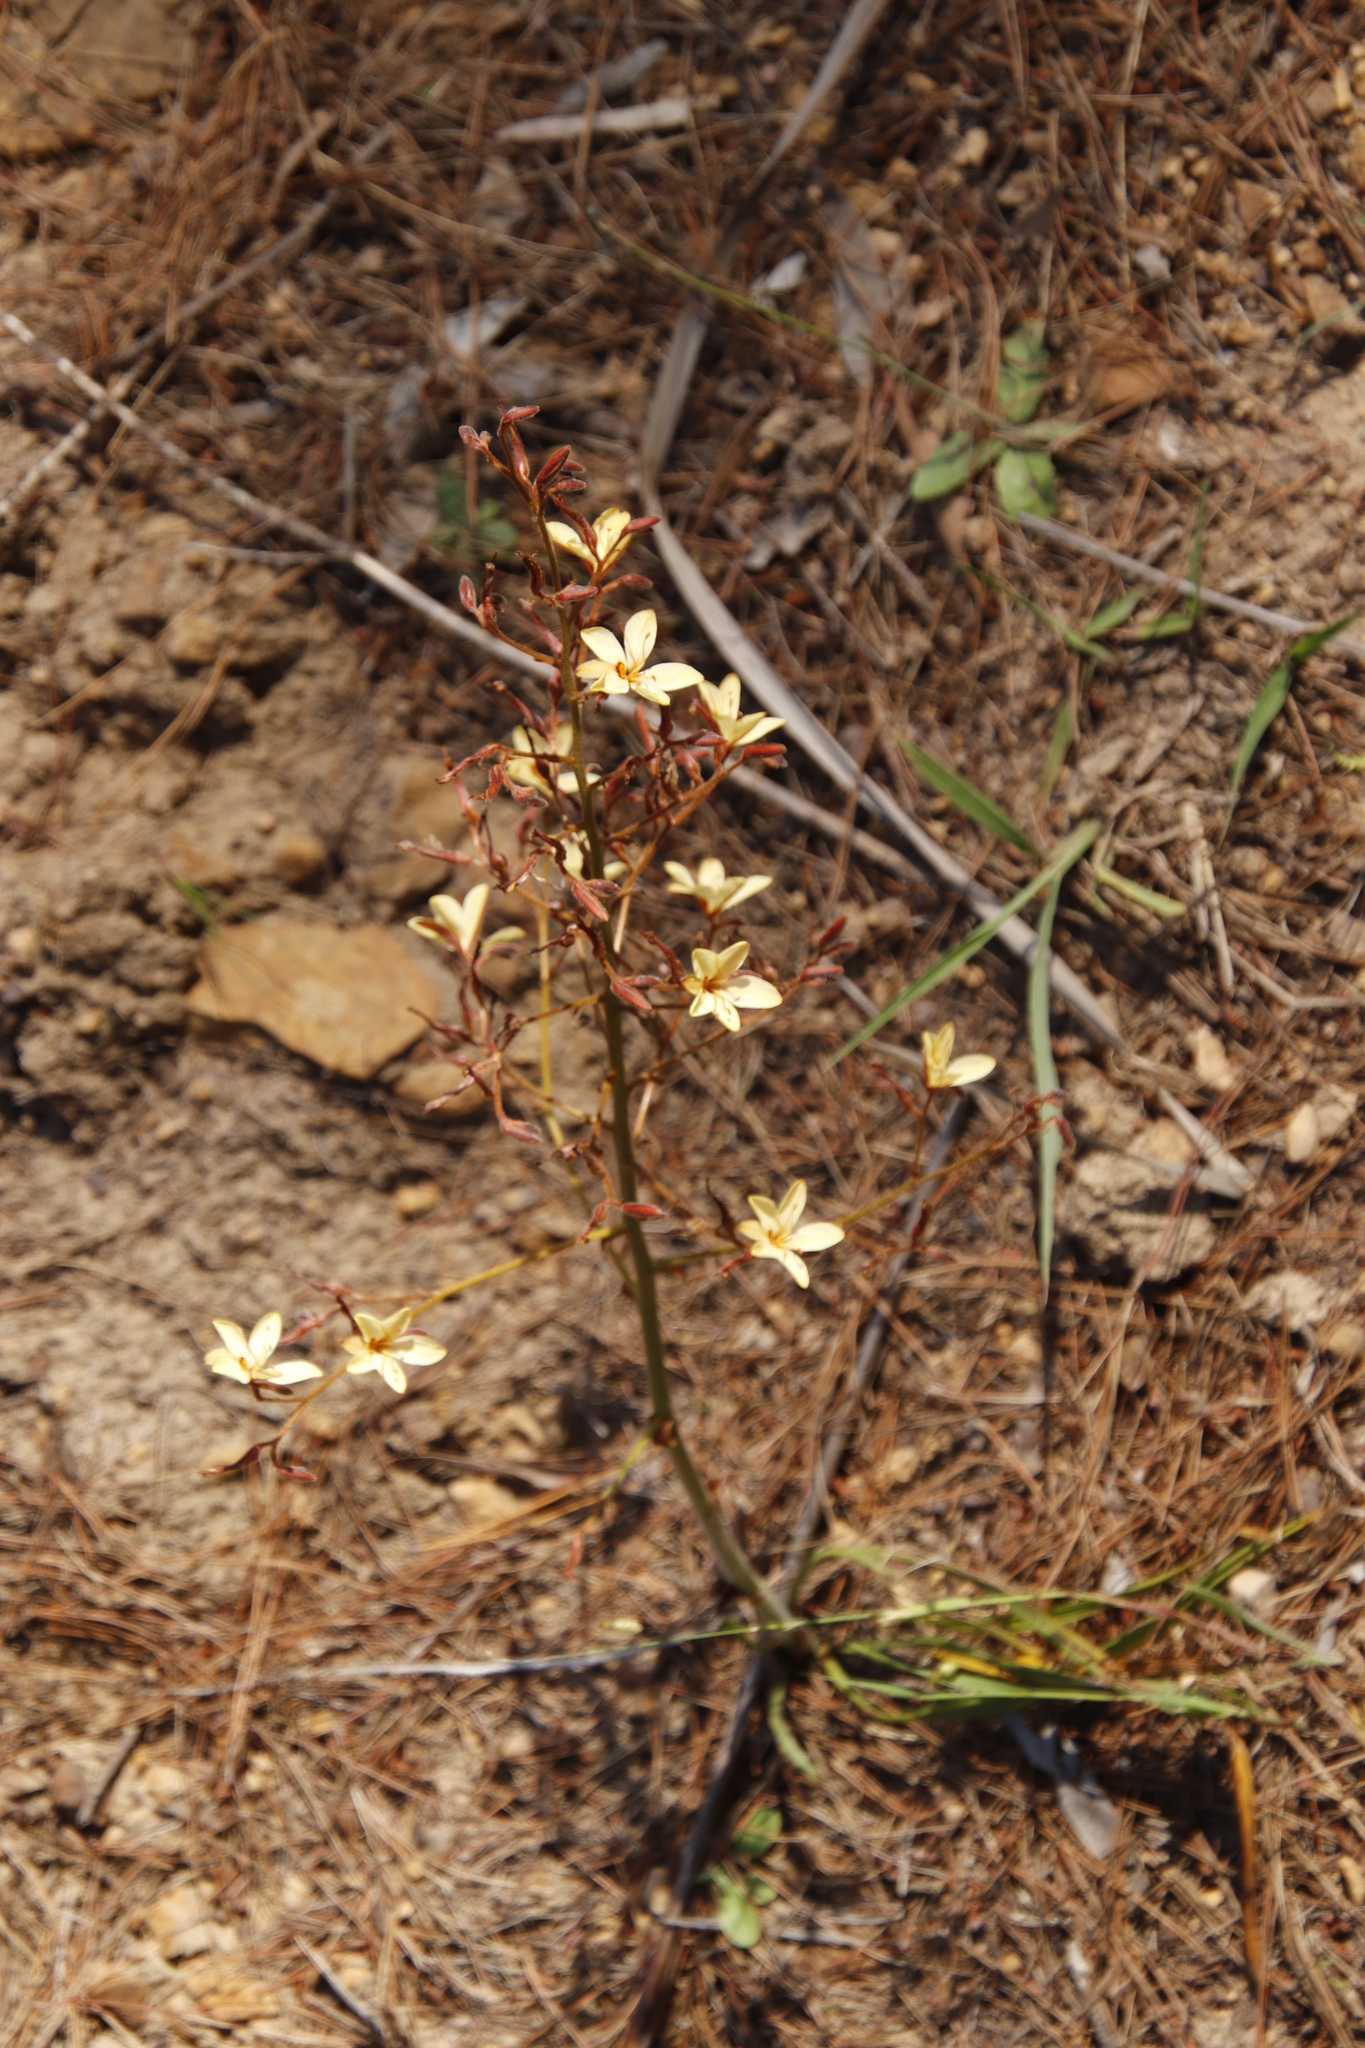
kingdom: Plantae
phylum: Tracheophyta
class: Liliopsida
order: Commelinales
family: Haemodoraceae
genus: Wachendorfia
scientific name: Wachendorfia paniculata
